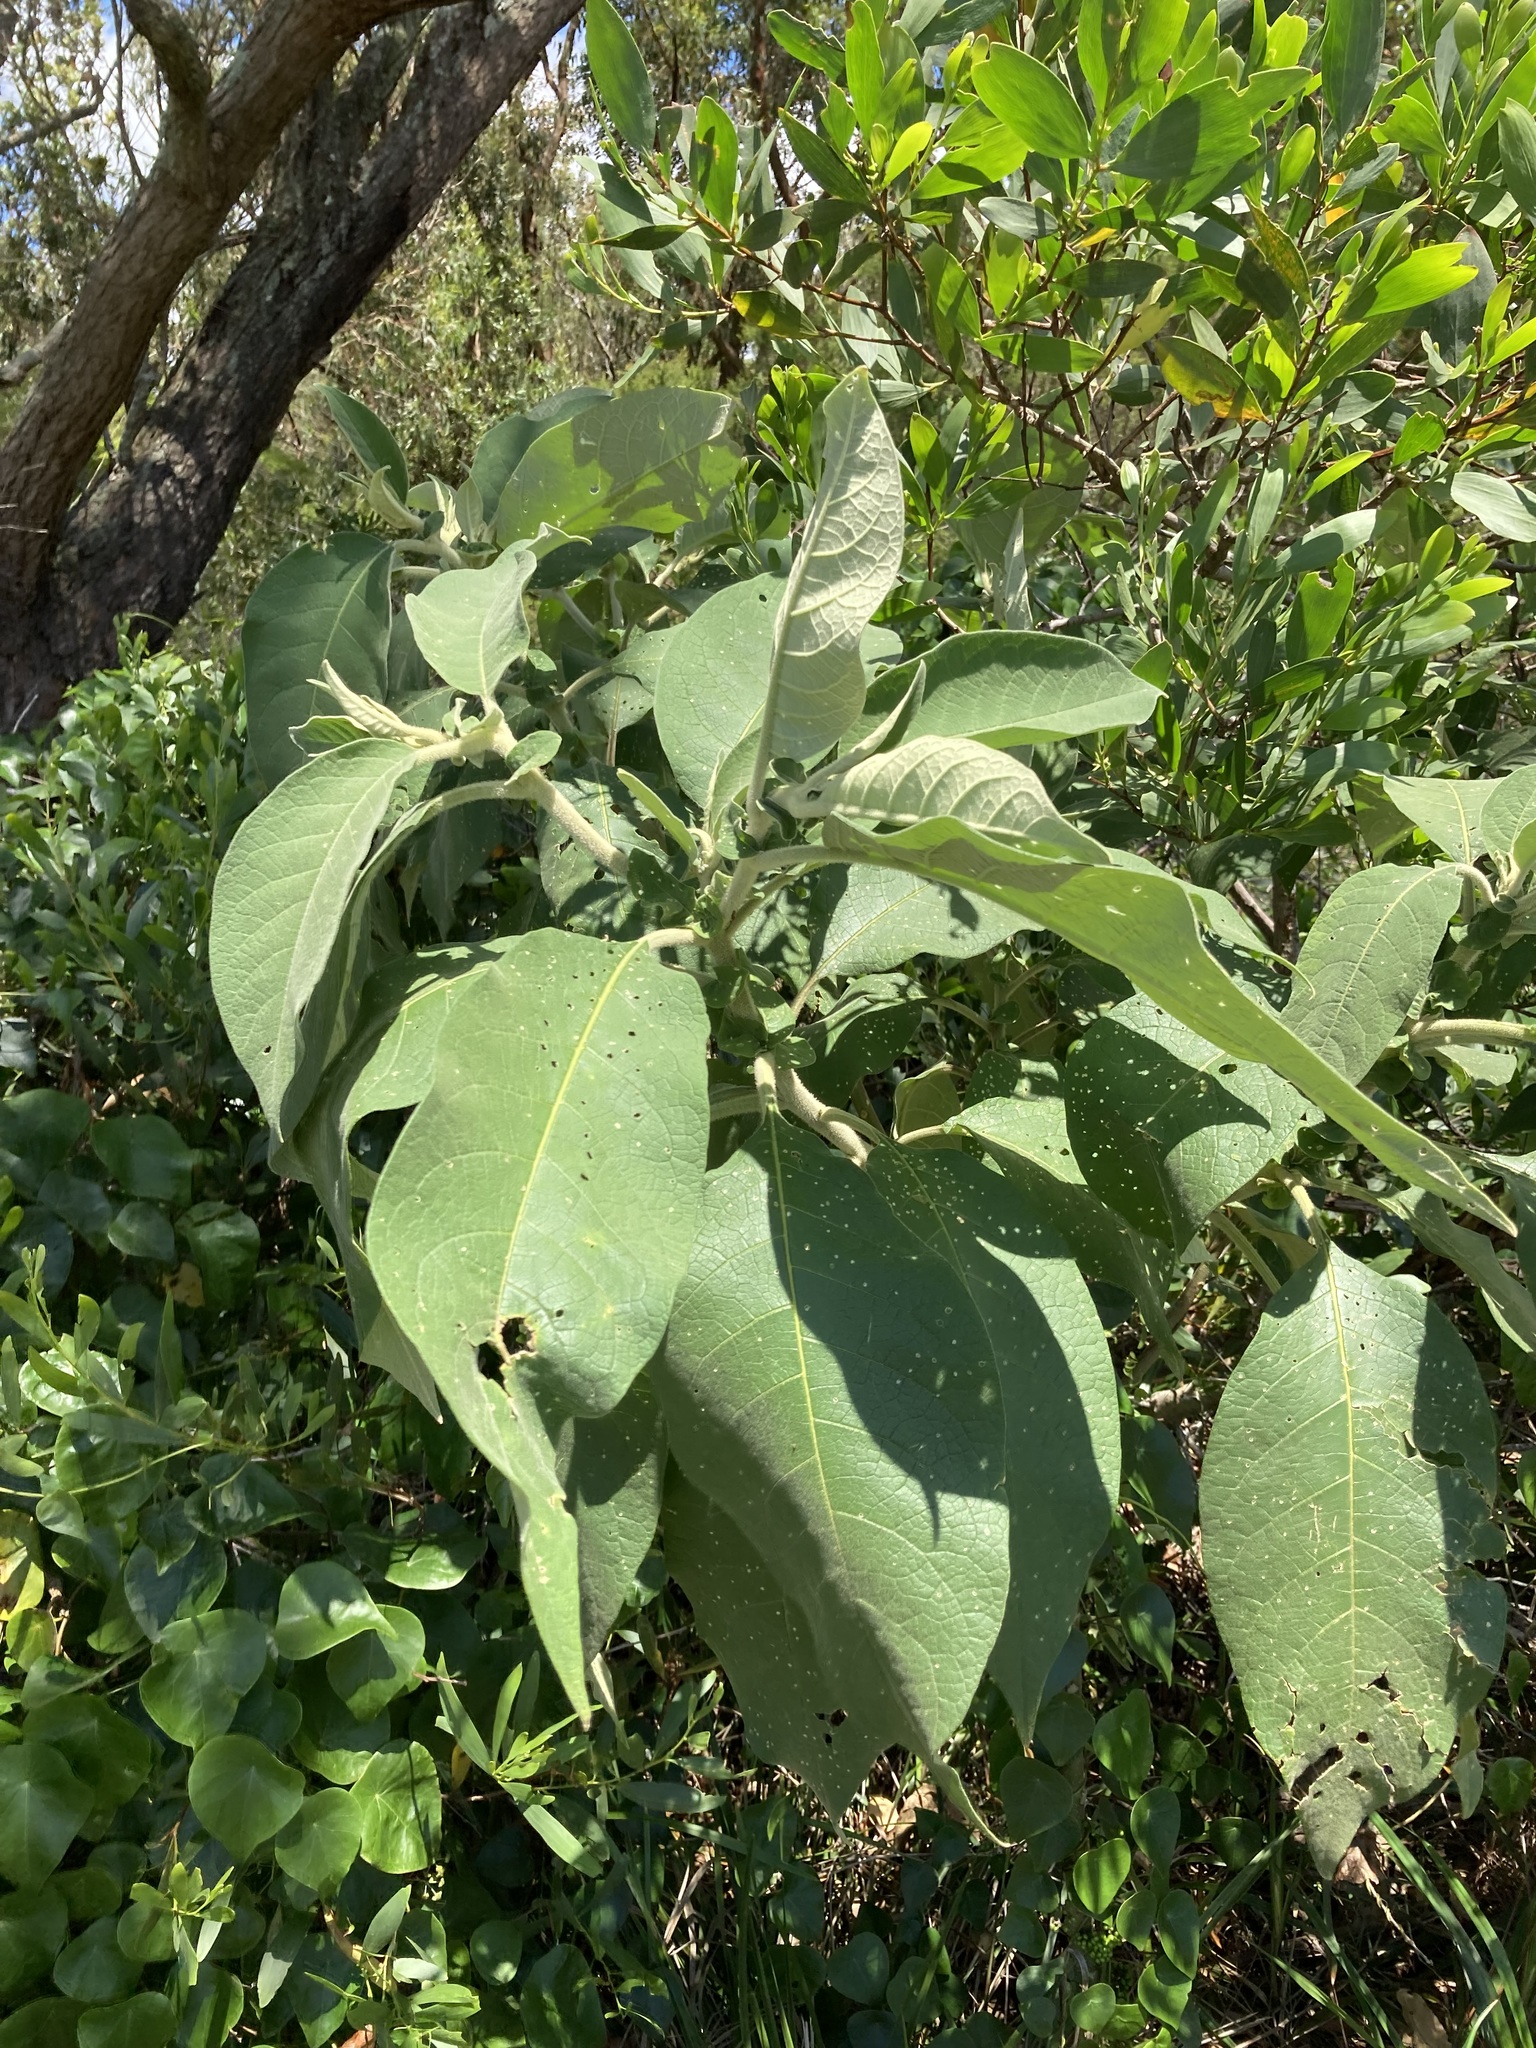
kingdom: Plantae
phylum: Tracheophyta
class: Magnoliopsida
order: Solanales
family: Solanaceae
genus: Solanum
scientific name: Solanum mauritianum
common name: Earleaf nightshade
